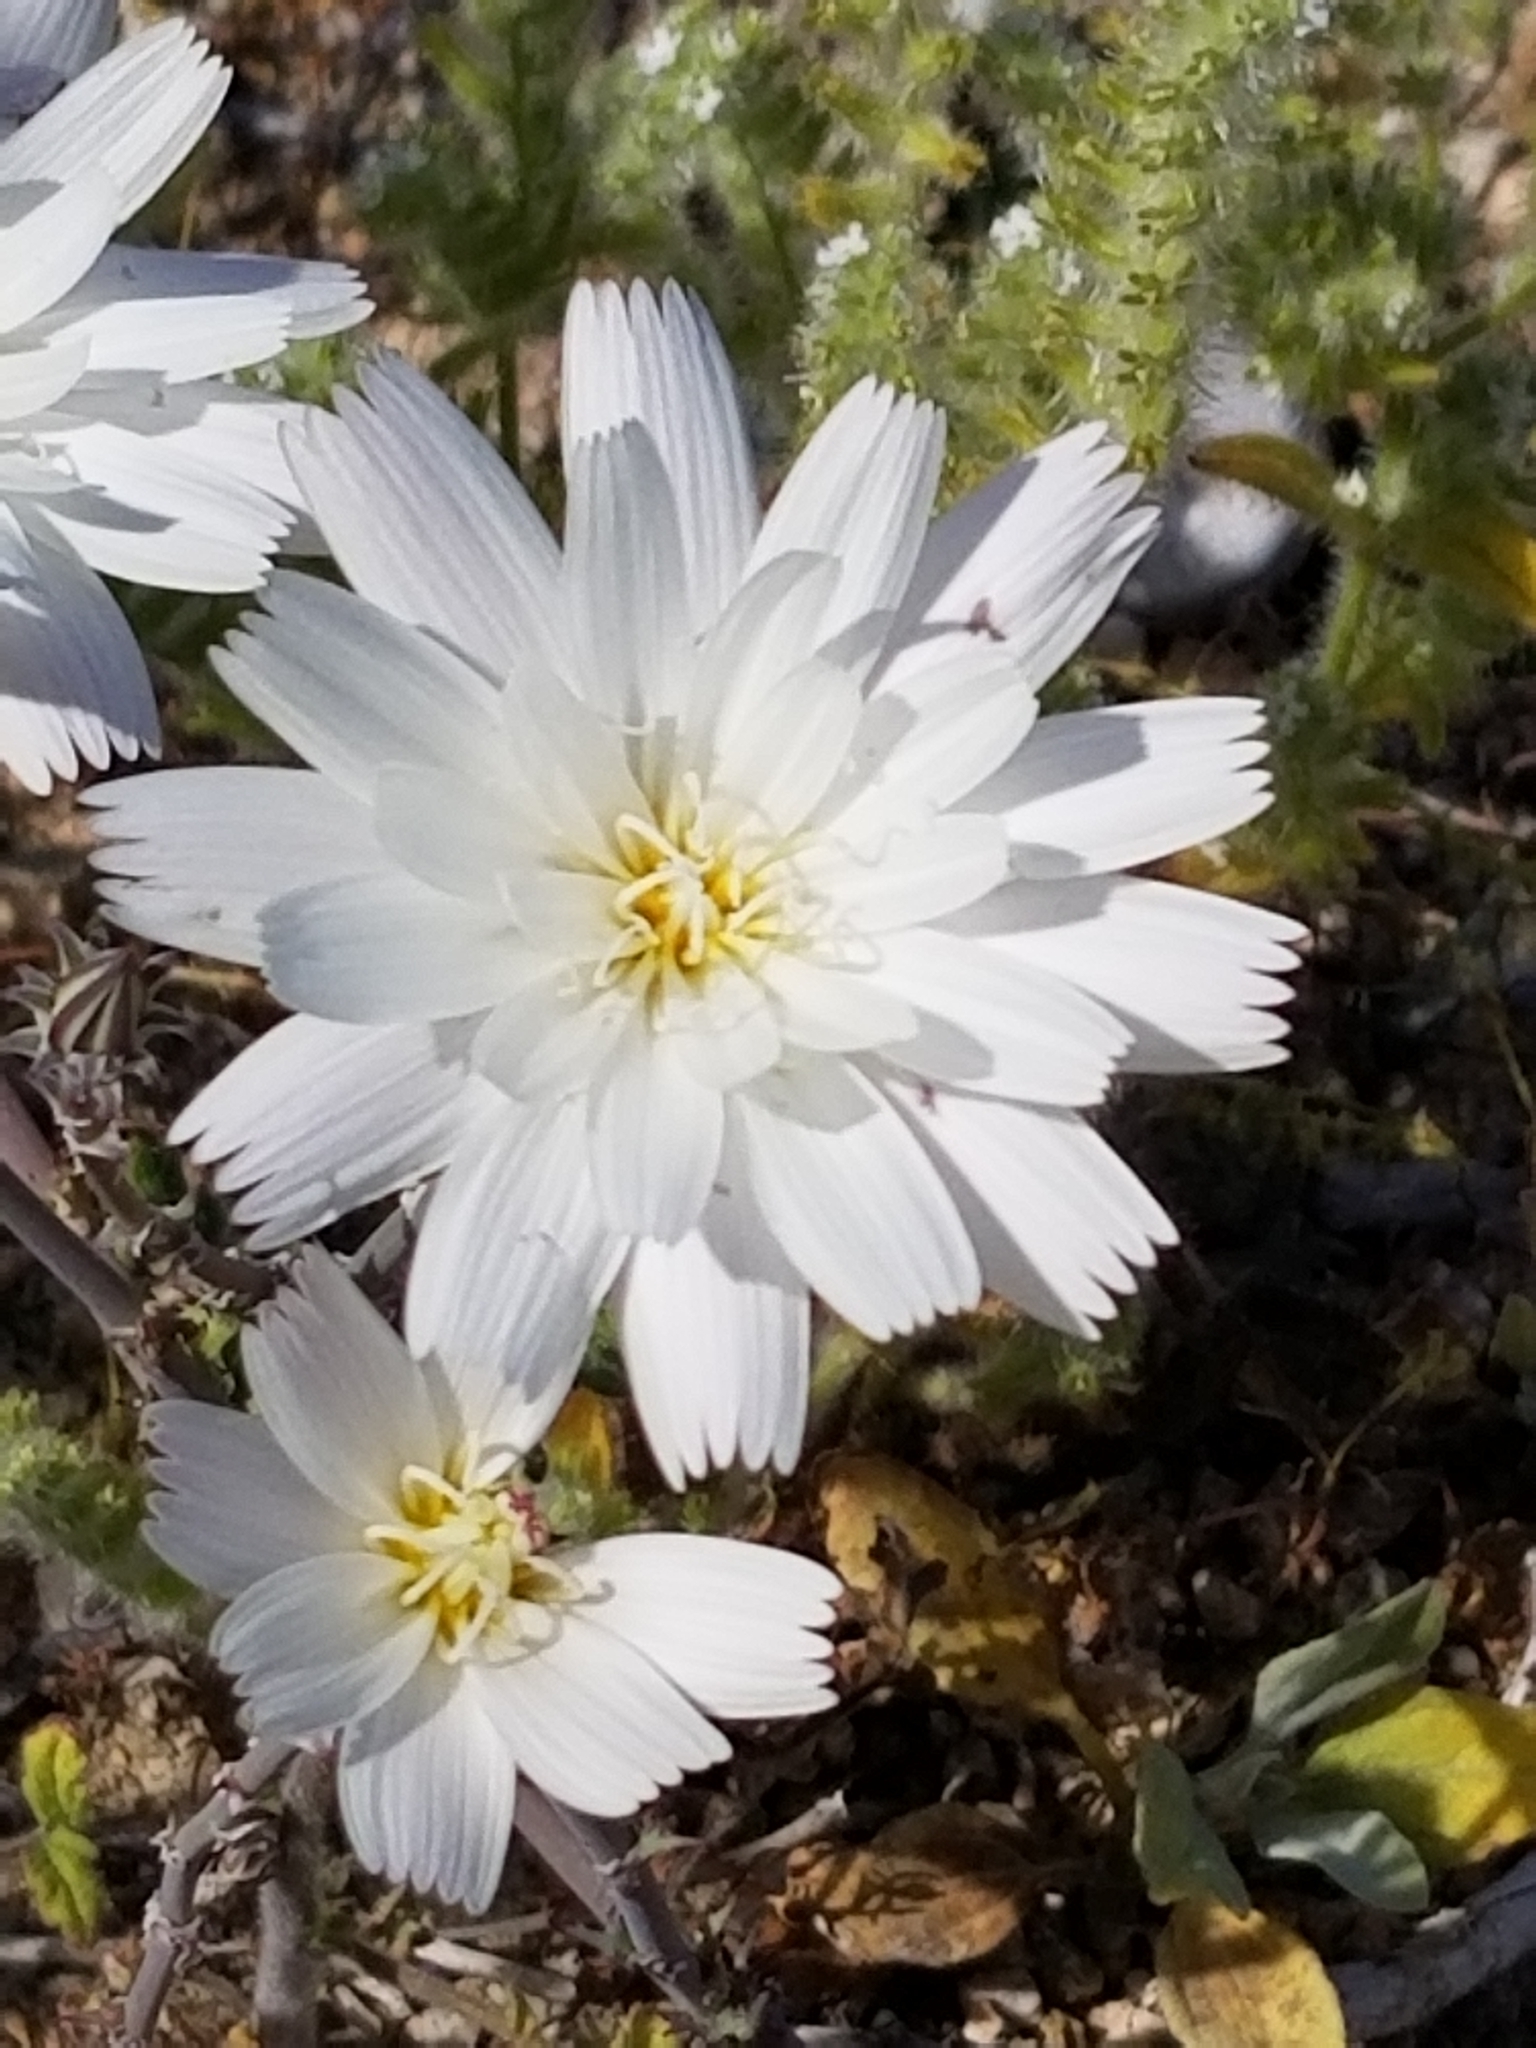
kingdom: Plantae
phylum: Tracheophyta
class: Magnoliopsida
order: Asterales
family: Asteraceae
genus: Rafinesquia
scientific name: Rafinesquia neomexicana
